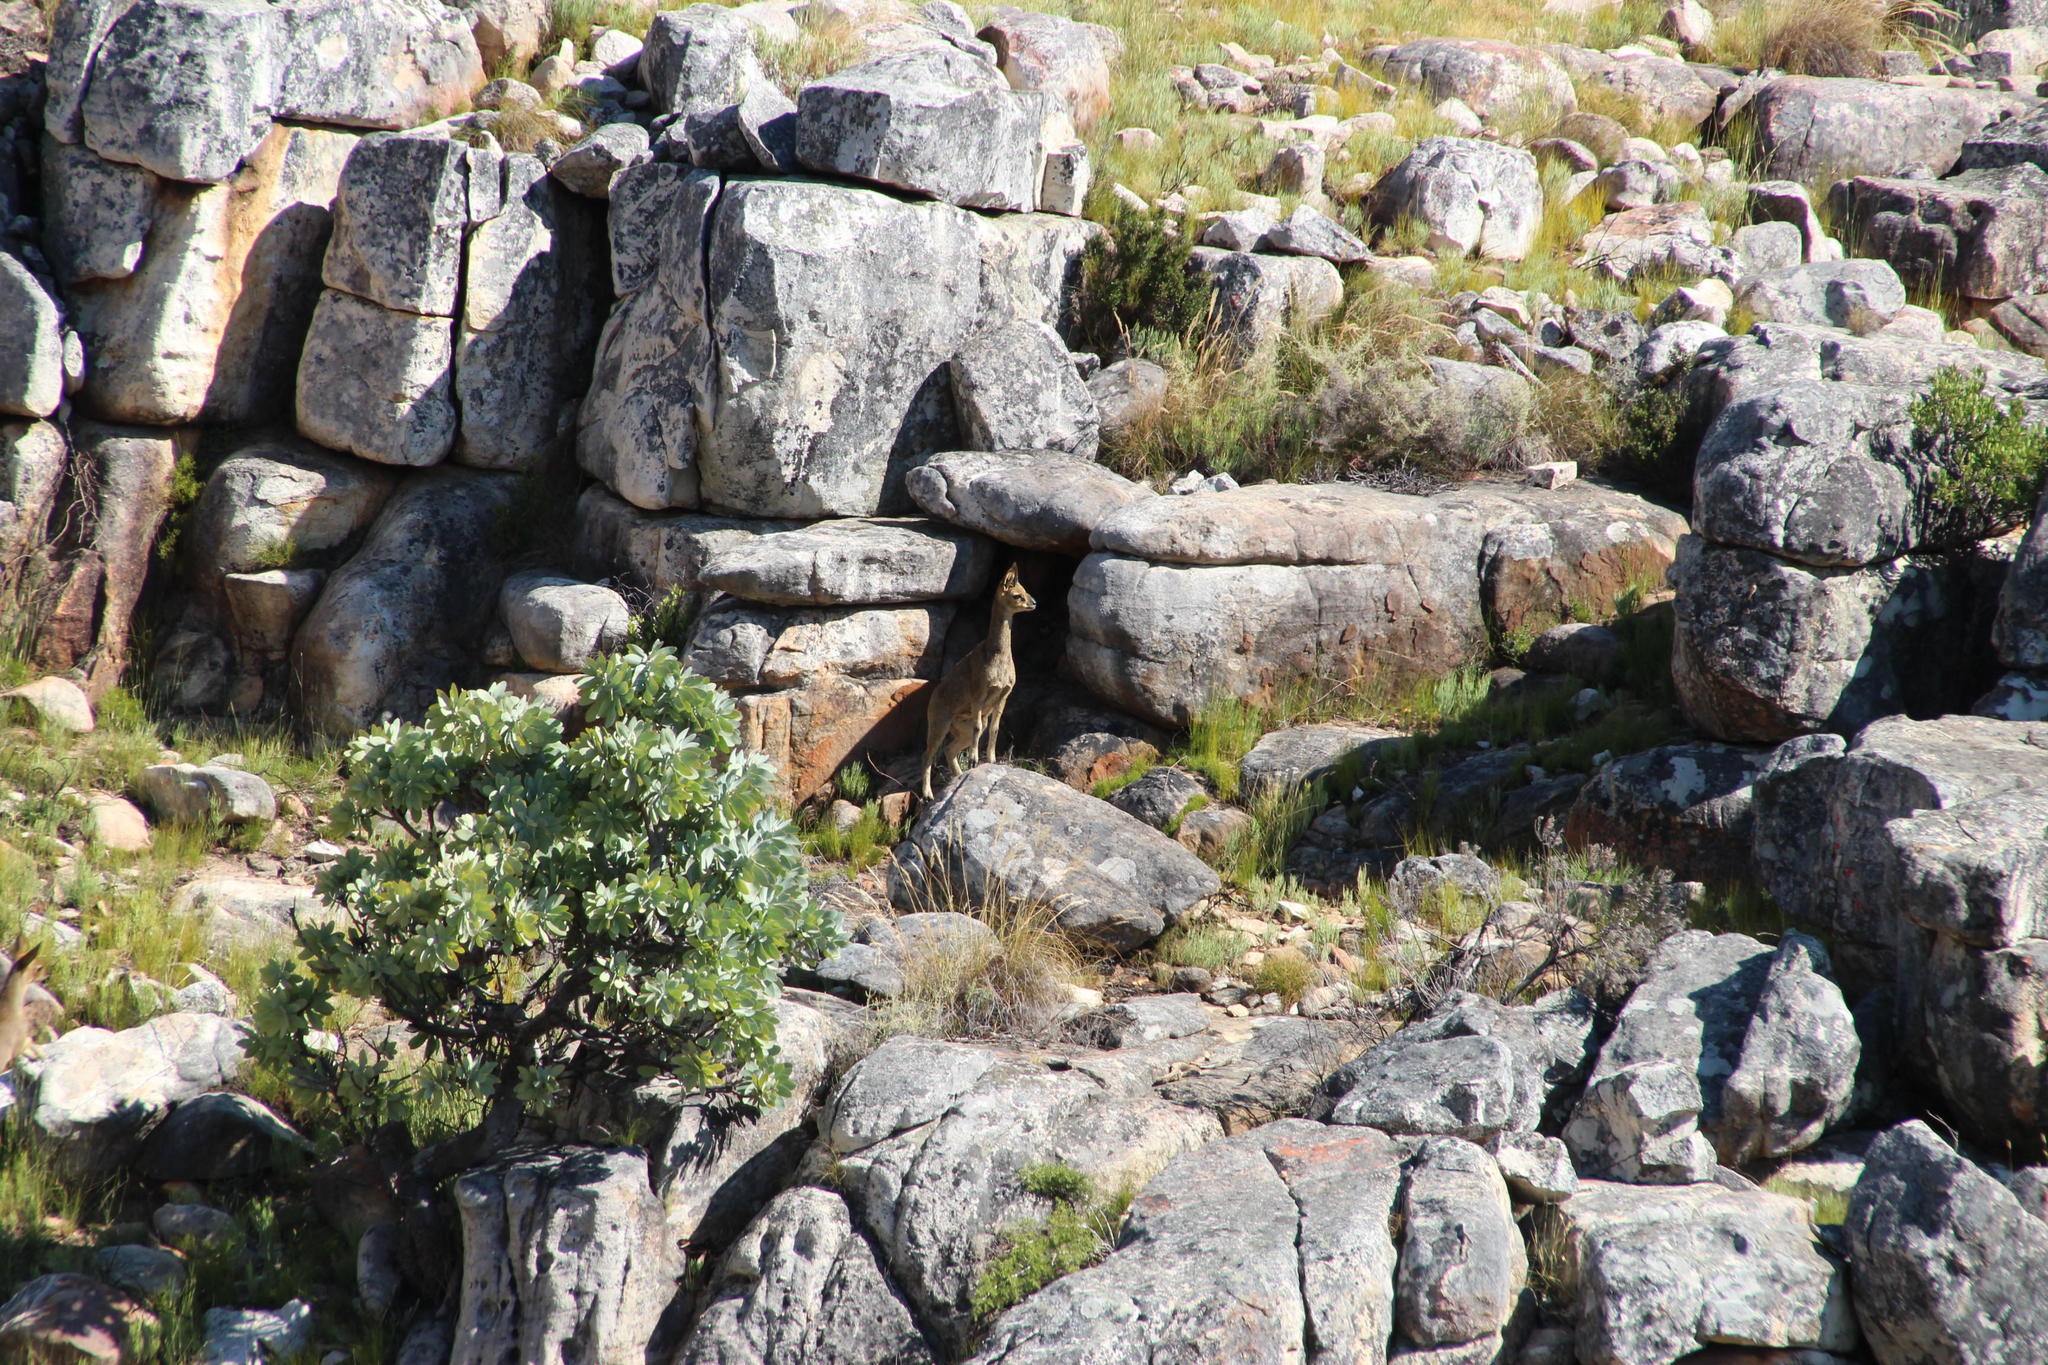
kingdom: Animalia
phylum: Chordata
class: Mammalia
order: Artiodactyla
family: Bovidae
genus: Oreotragus
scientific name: Oreotragus oreotragus
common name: Klipspringer
